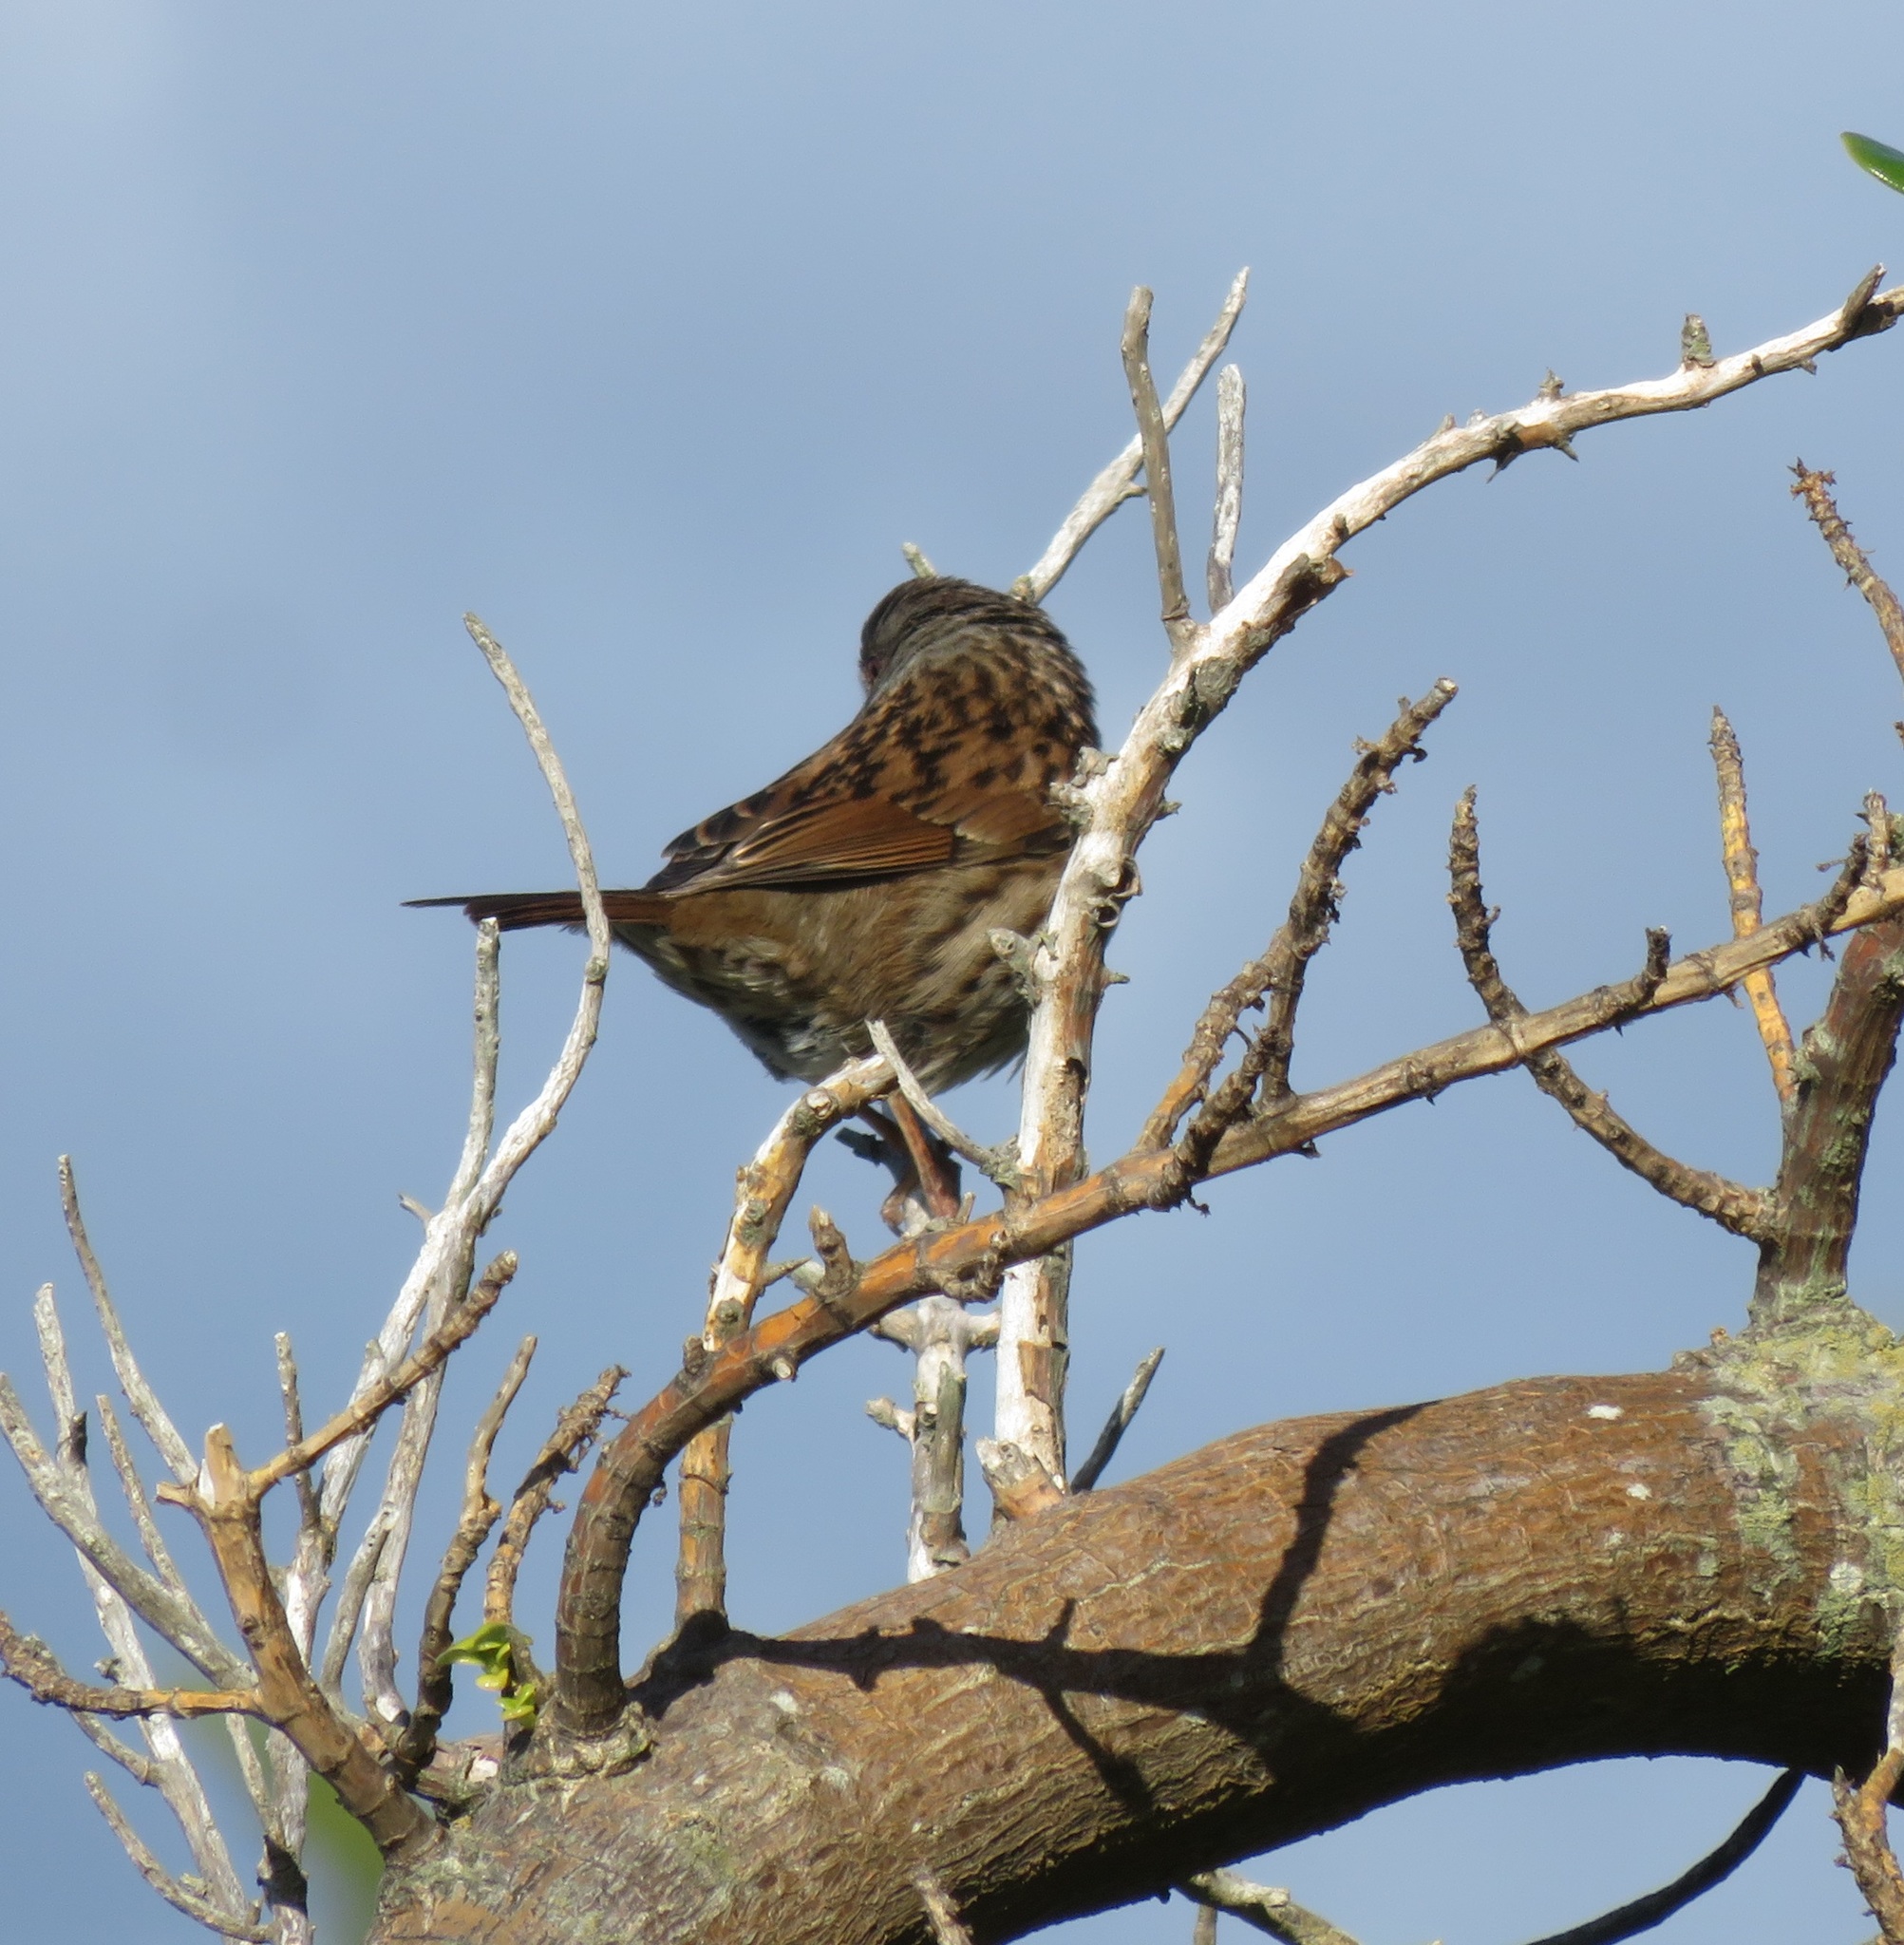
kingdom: Animalia
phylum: Chordata
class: Aves
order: Passeriformes
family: Prunellidae
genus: Prunella
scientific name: Prunella modularis
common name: Dunnock
